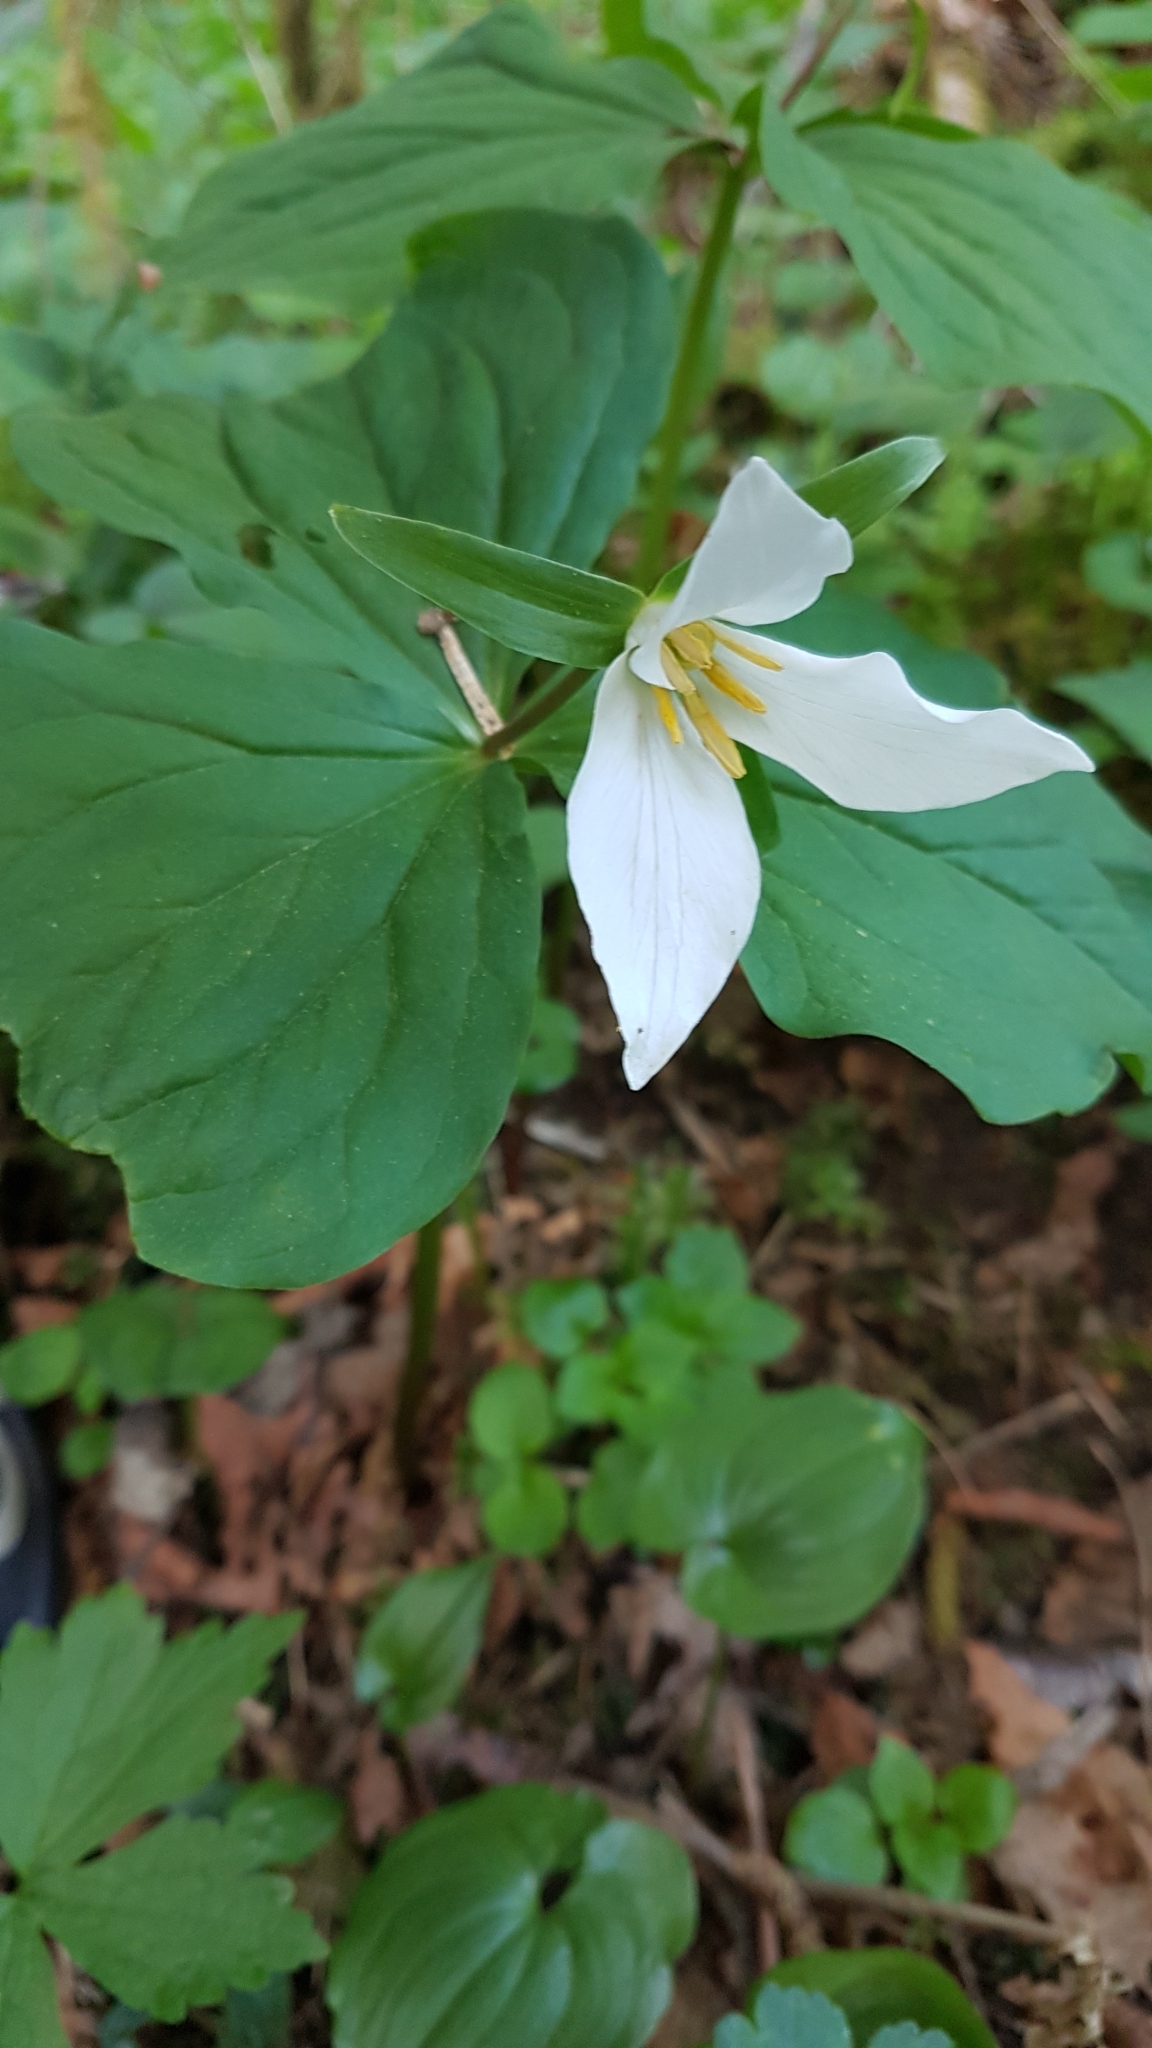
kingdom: Plantae
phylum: Tracheophyta
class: Liliopsida
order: Liliales
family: Melanthiaceae
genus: Trillium
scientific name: Trillium ovatum
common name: Pacific trillium
